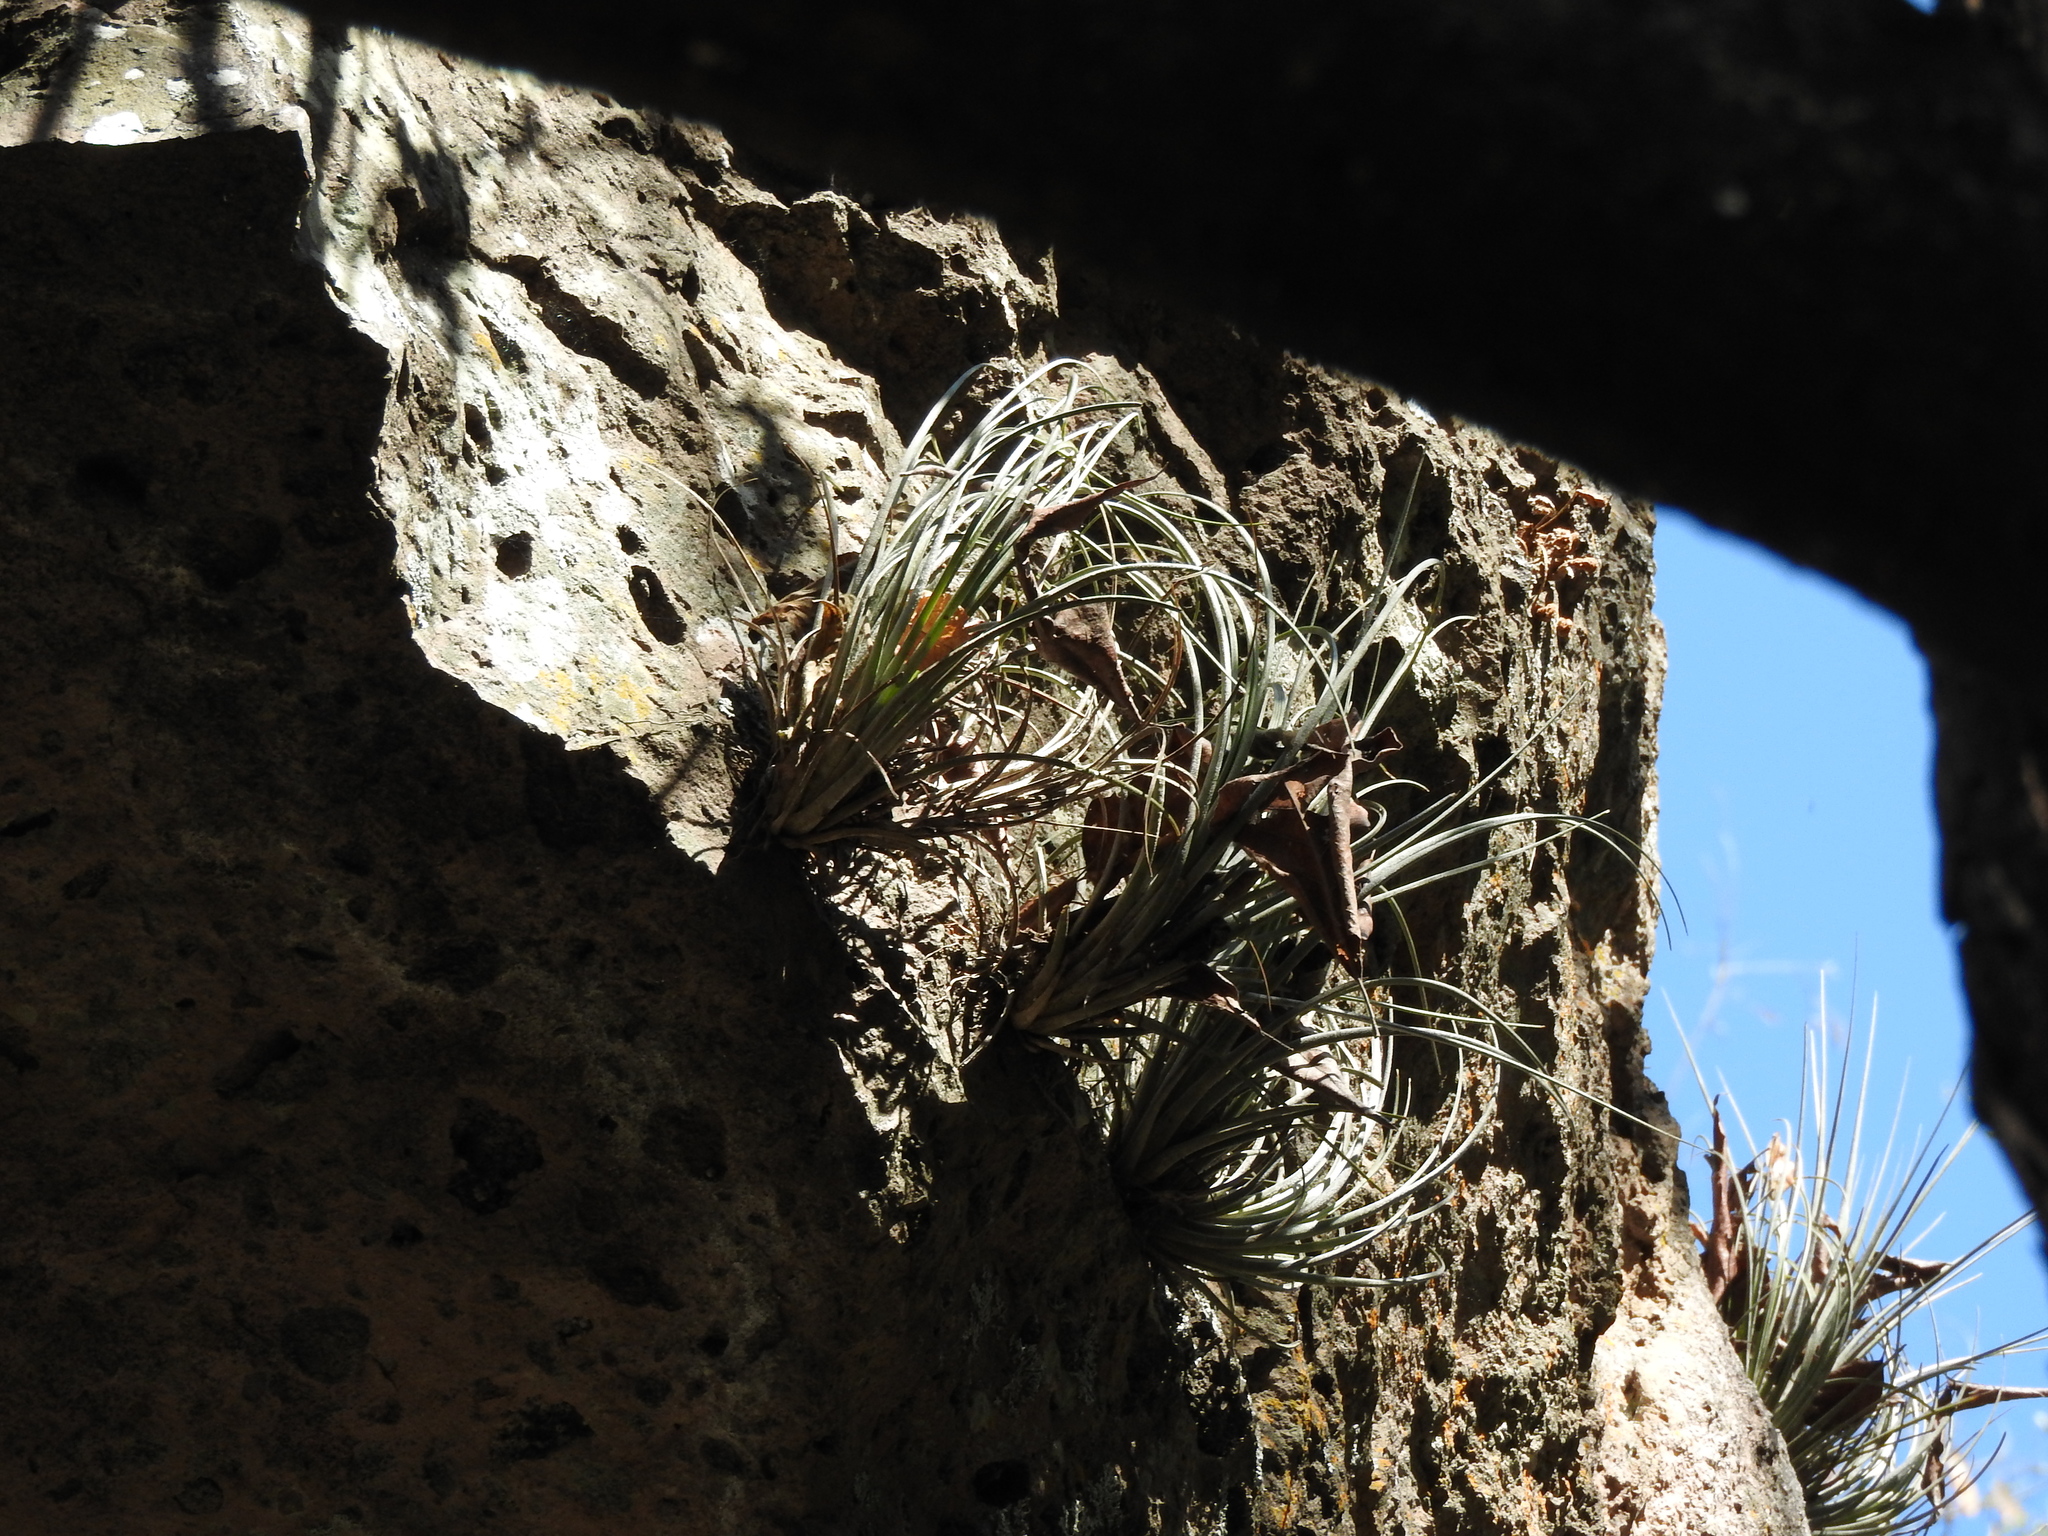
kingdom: Plantae
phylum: Tracheophyta
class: Liliopsida
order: Poales
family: Bromeliaceae
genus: Tillandsia
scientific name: Tillandsia juncea
